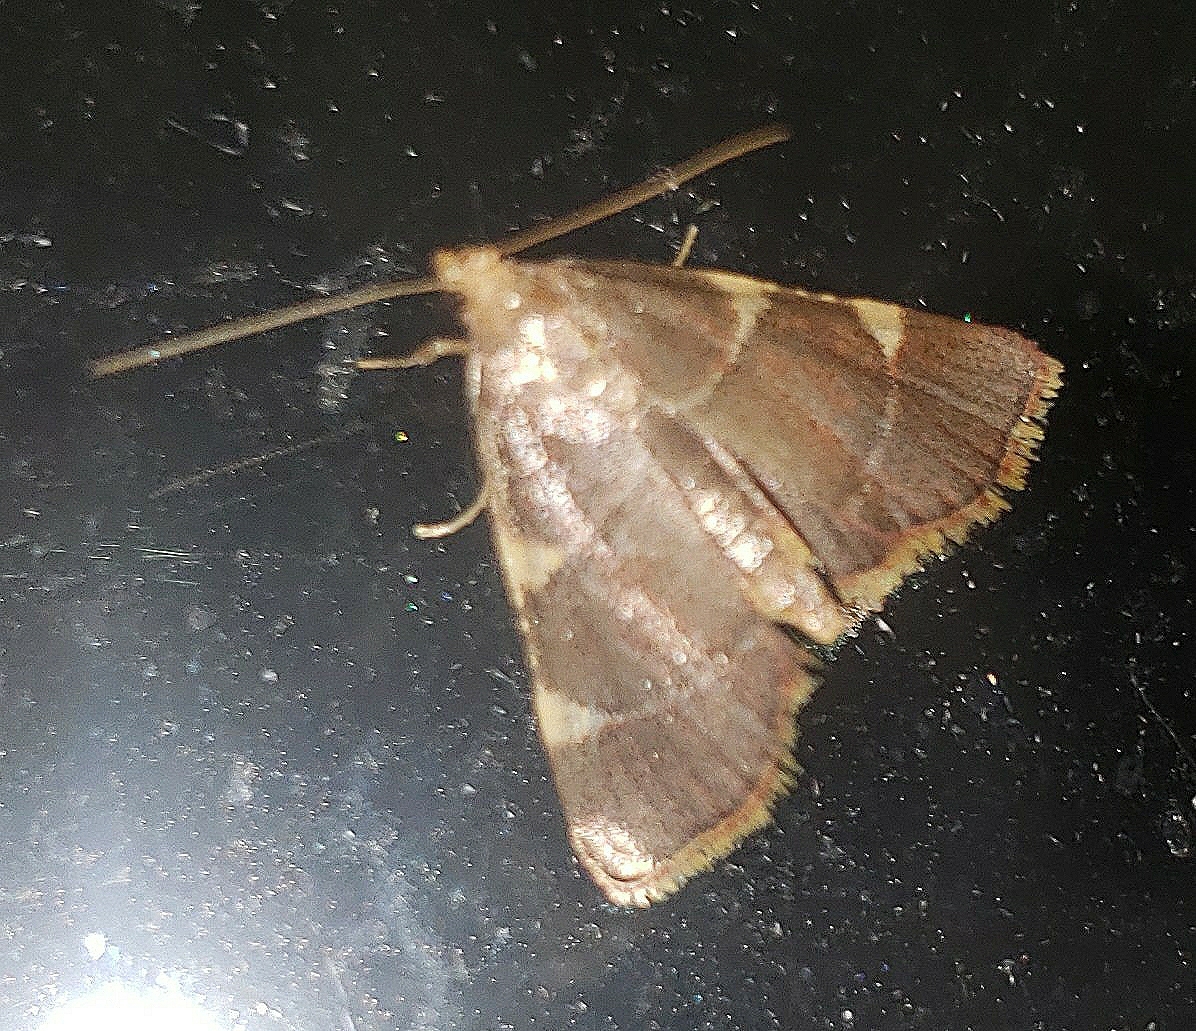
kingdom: Animalia
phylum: Arthropoda
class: Insecta
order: Lepidoptera
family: Pyralidae
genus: Hypsopygia
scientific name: Hypsopygia olinalis
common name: Yellow-fringed dolichomia moth
